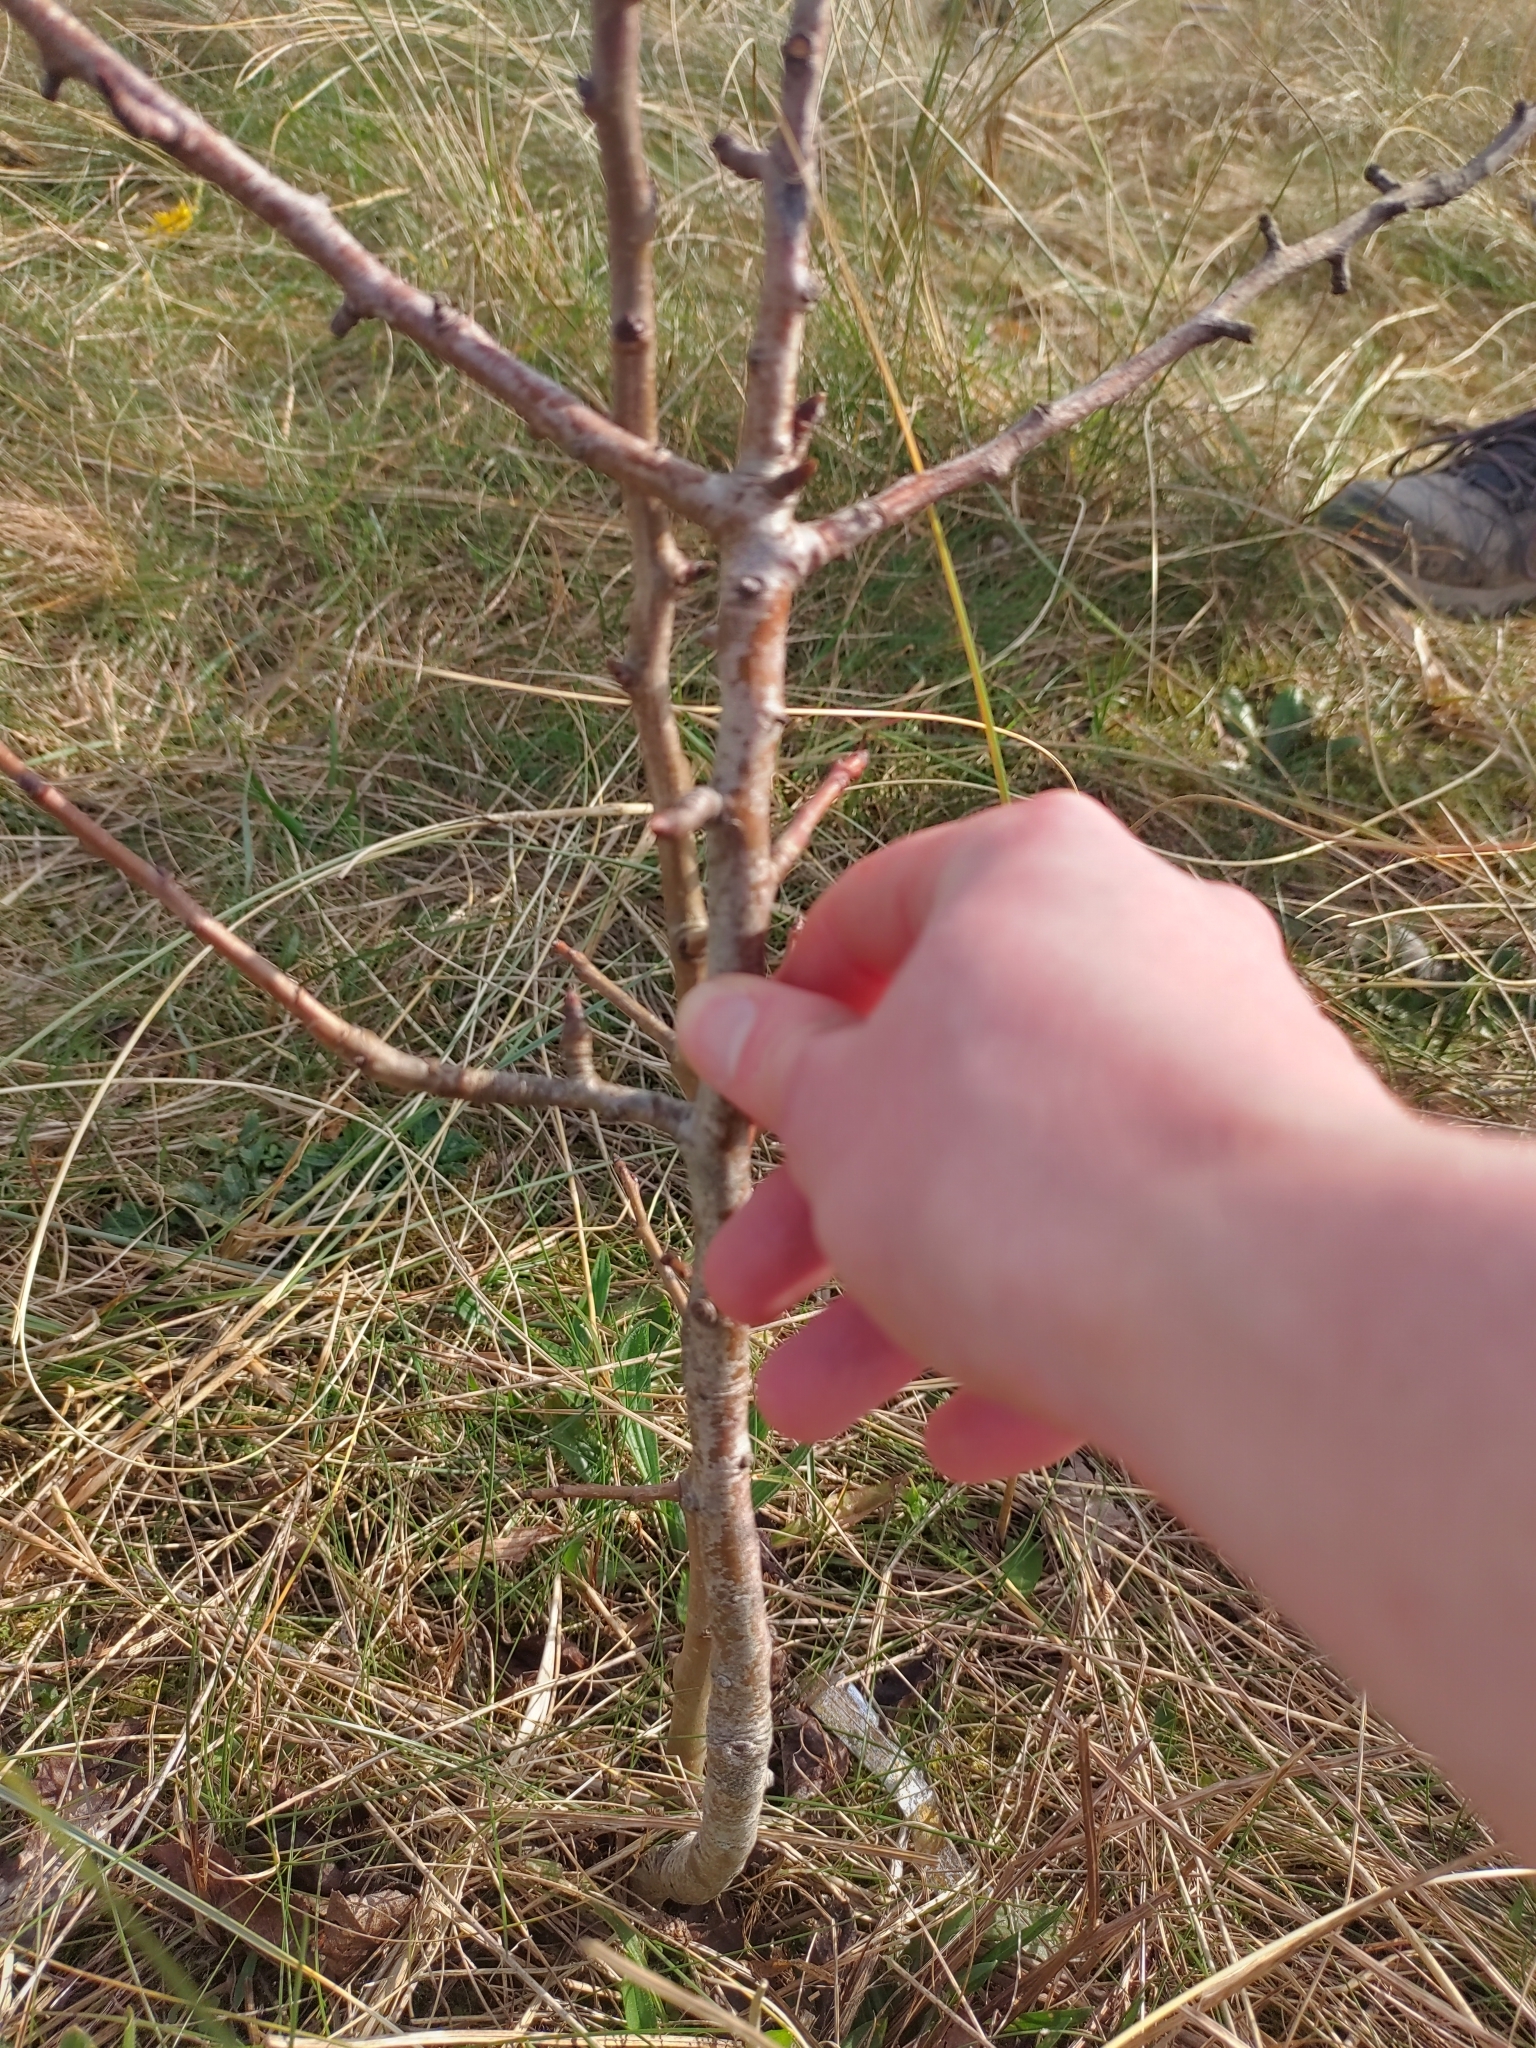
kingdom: Plantae
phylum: Tracheophyta
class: Magnoliopsida
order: Rosales
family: Rosaceae
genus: Malus
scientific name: Malus domestica
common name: Apple
